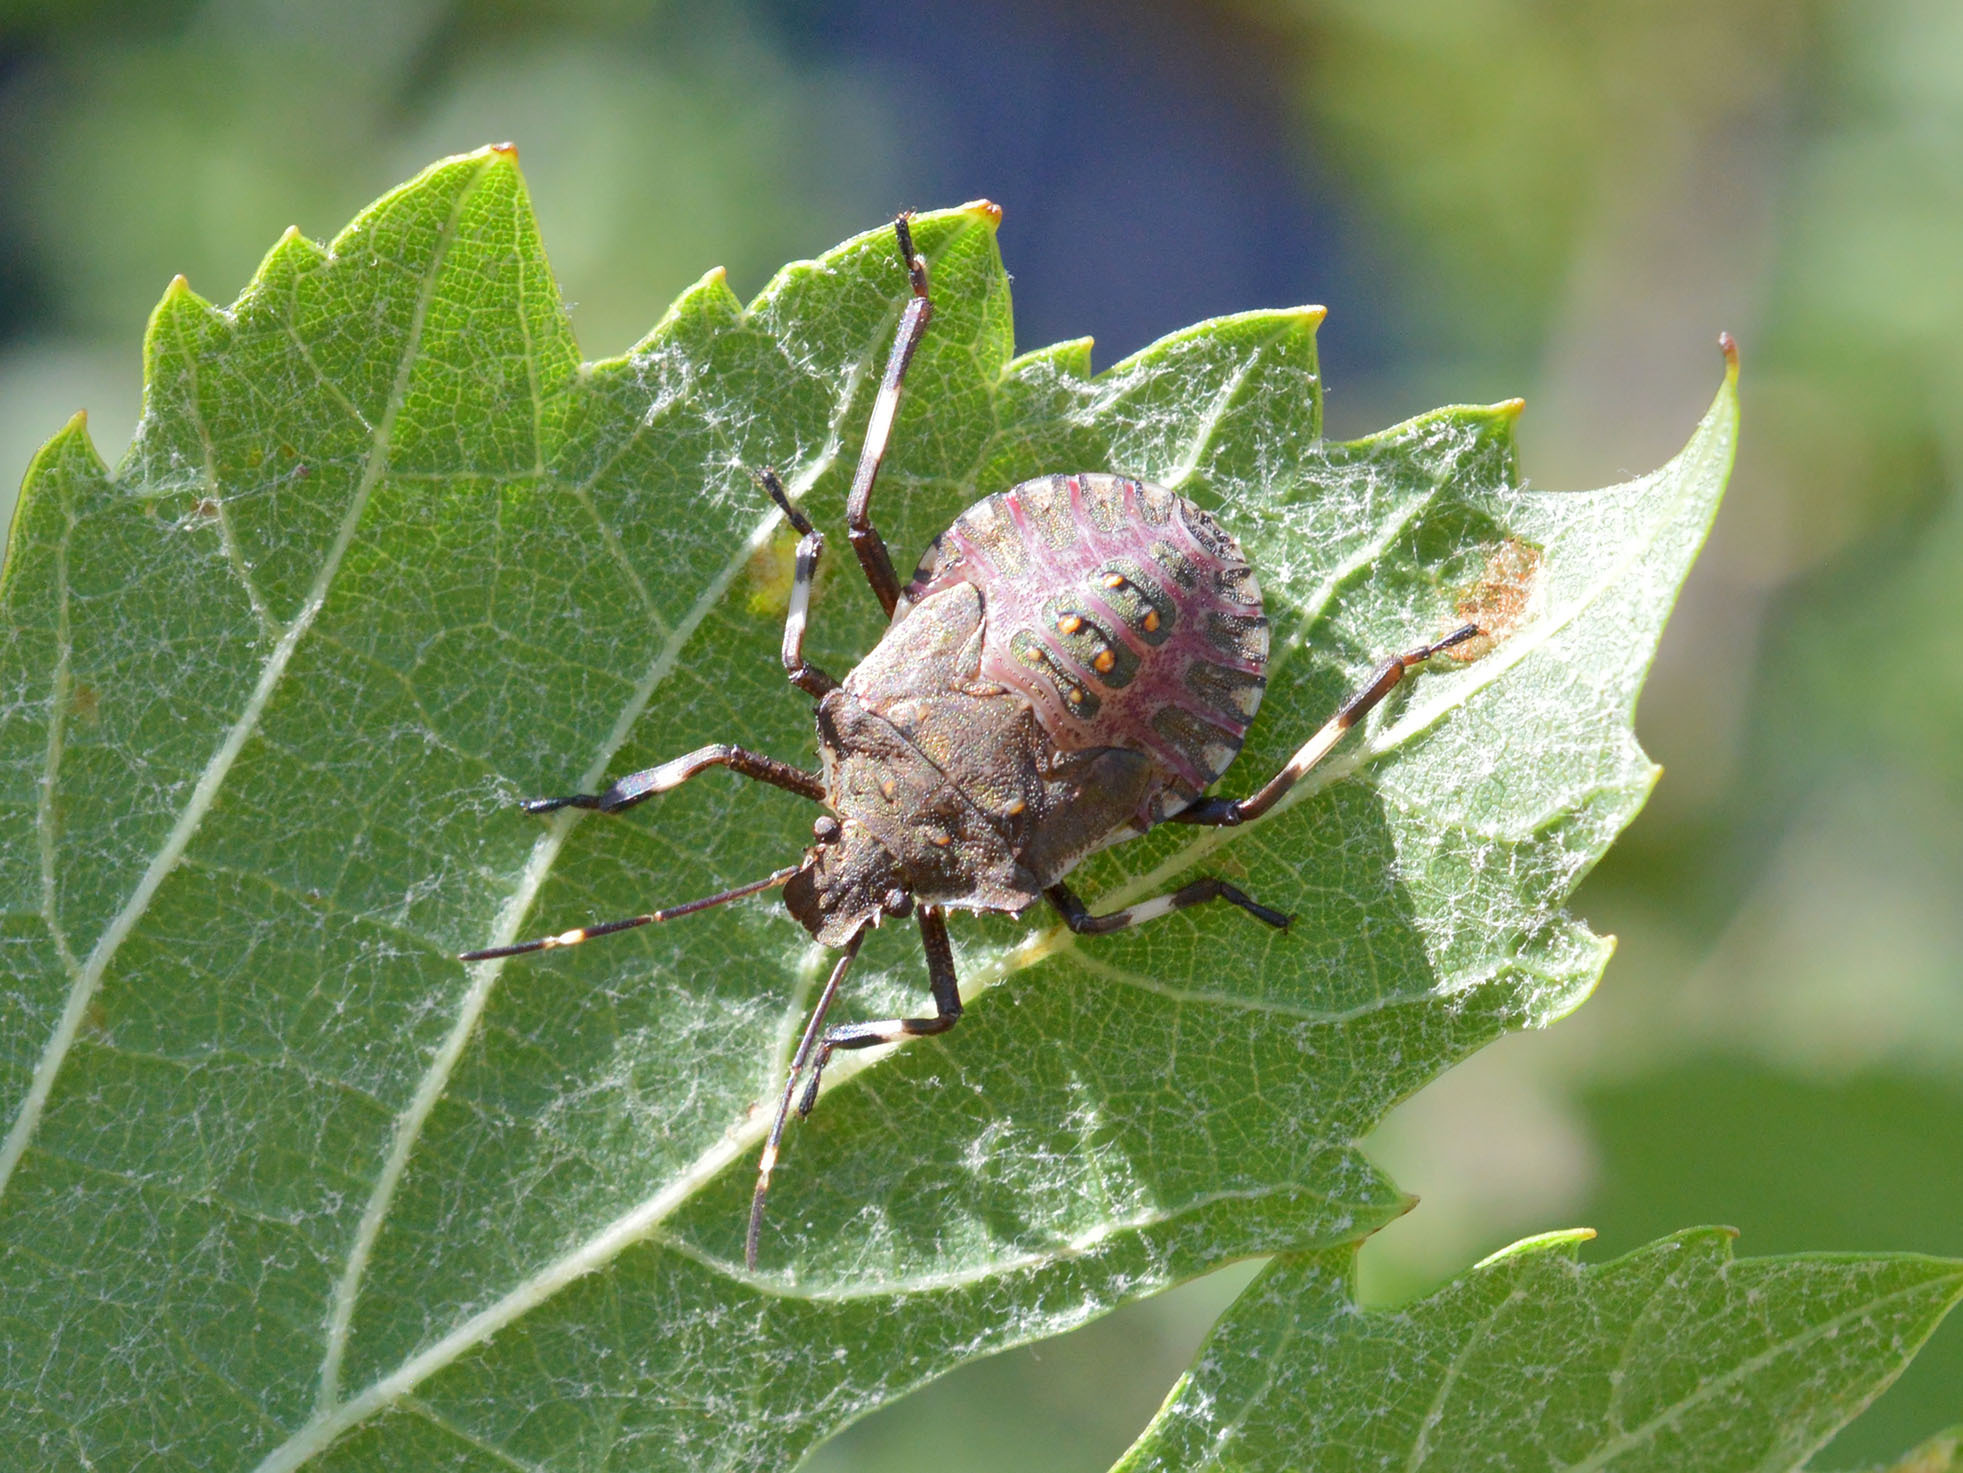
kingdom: Animalia
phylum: Arthropoda
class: Insecta
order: Hemiptera
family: Pentatomidae
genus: Halyomorpha
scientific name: Halyomorpha halys
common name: Brown marmorated stink bug
